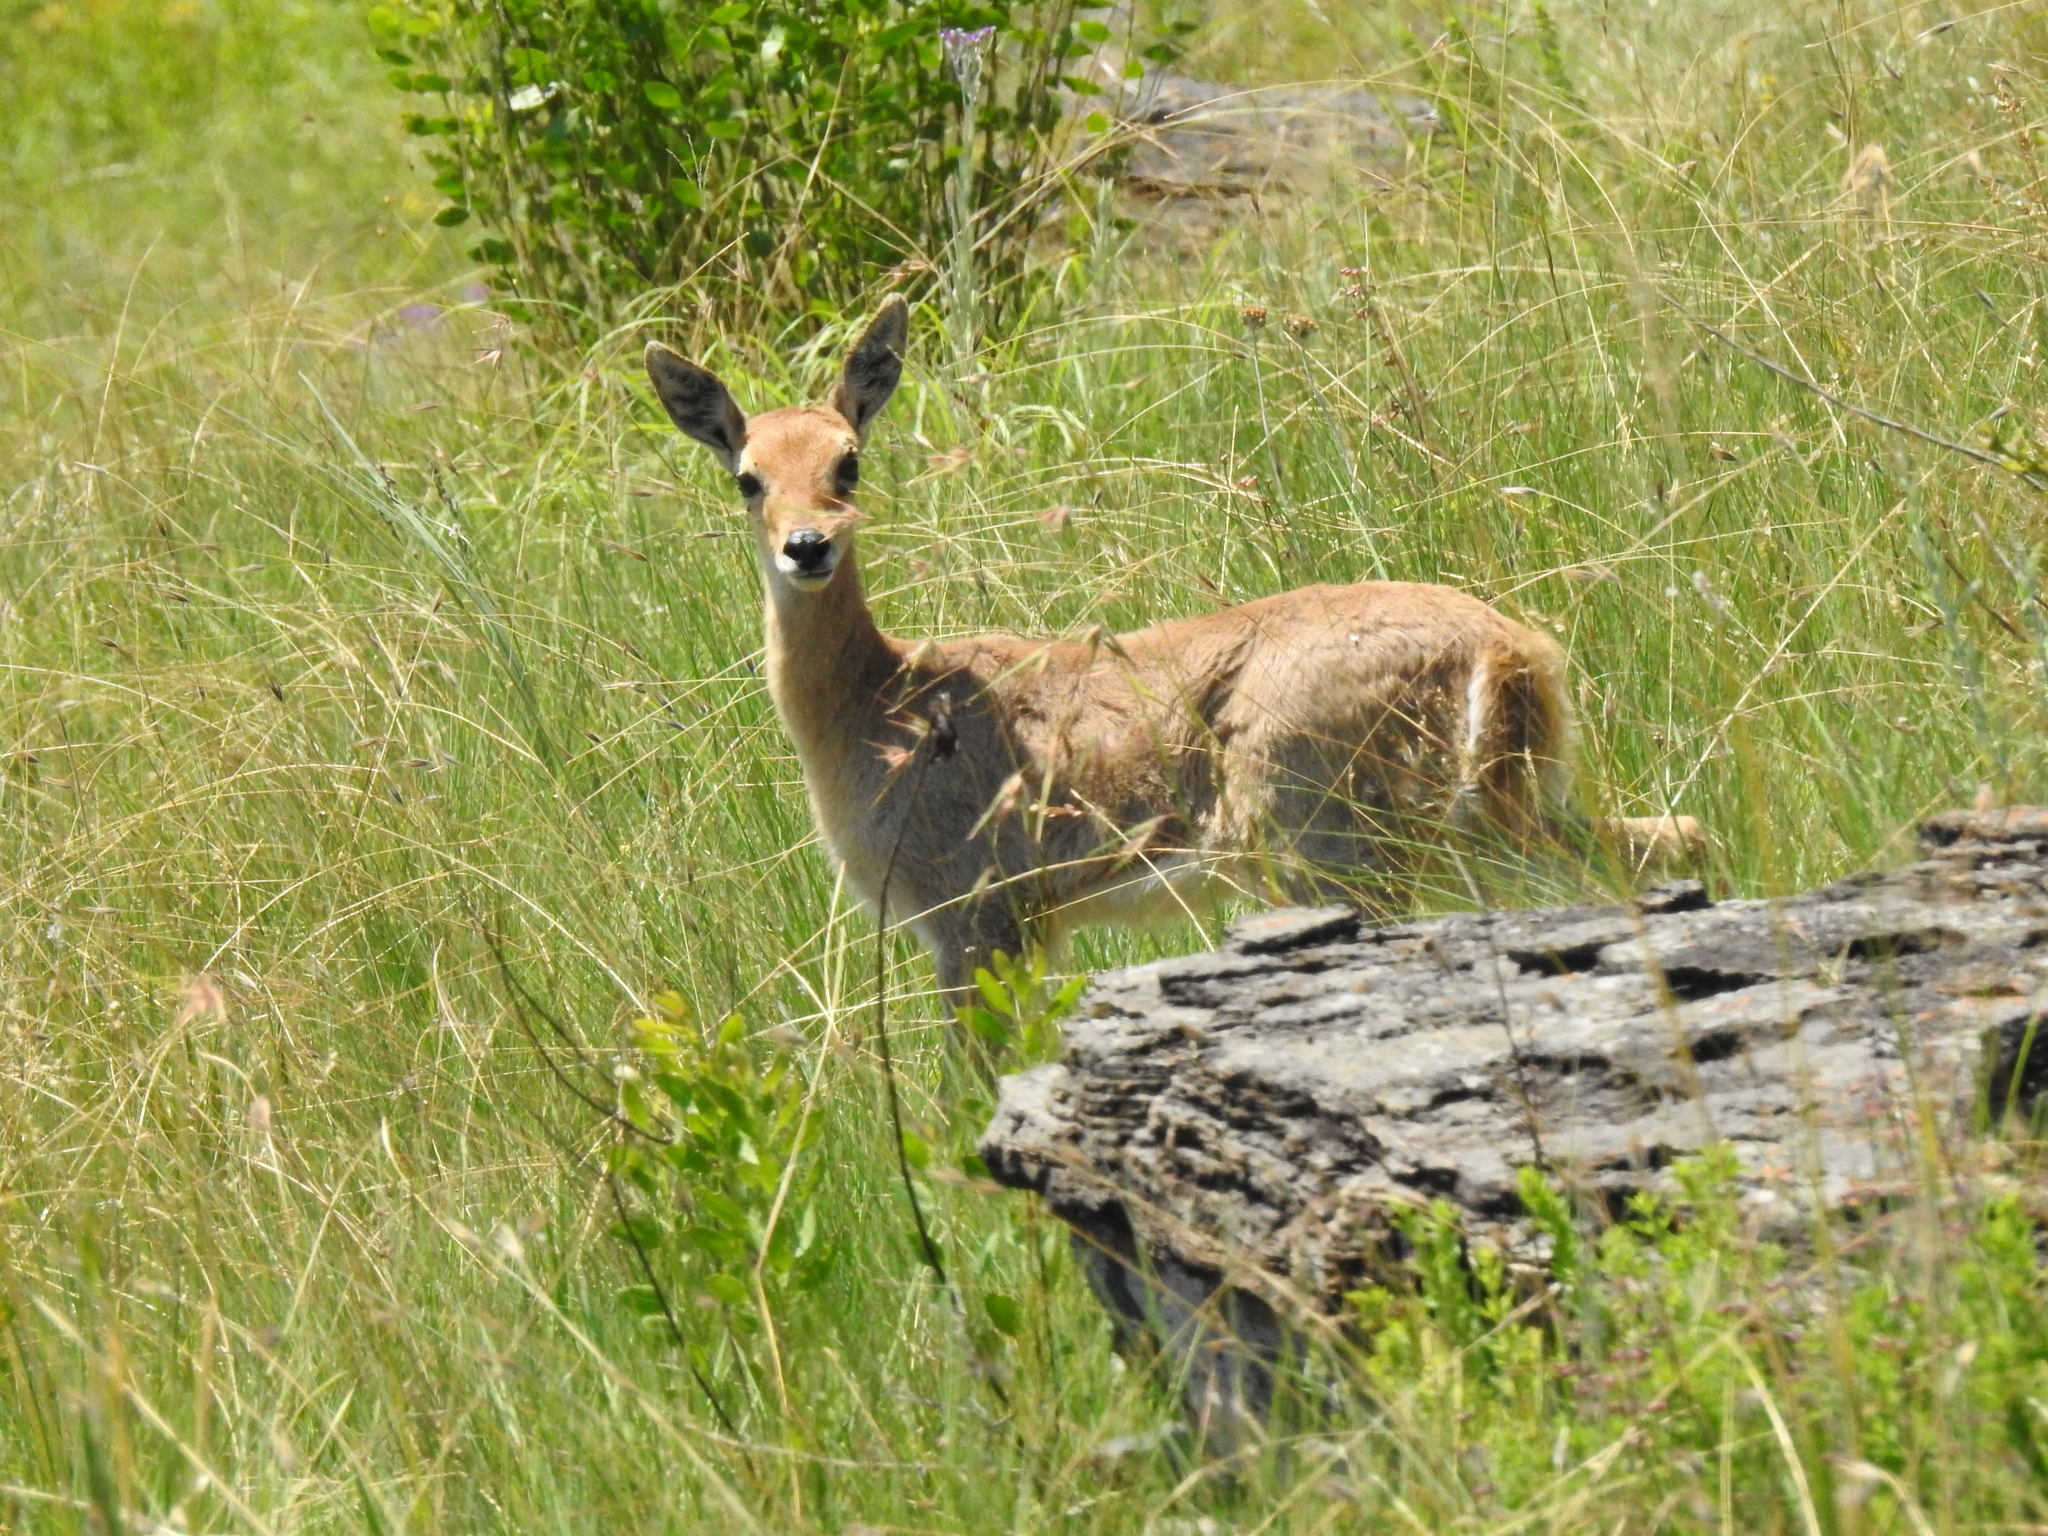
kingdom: Animalia
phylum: Chordata
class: Mammalia
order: Artiodactyla
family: Bovidae
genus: Redunca
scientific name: Redunca fulvorufula
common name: Mountain reedbuck
